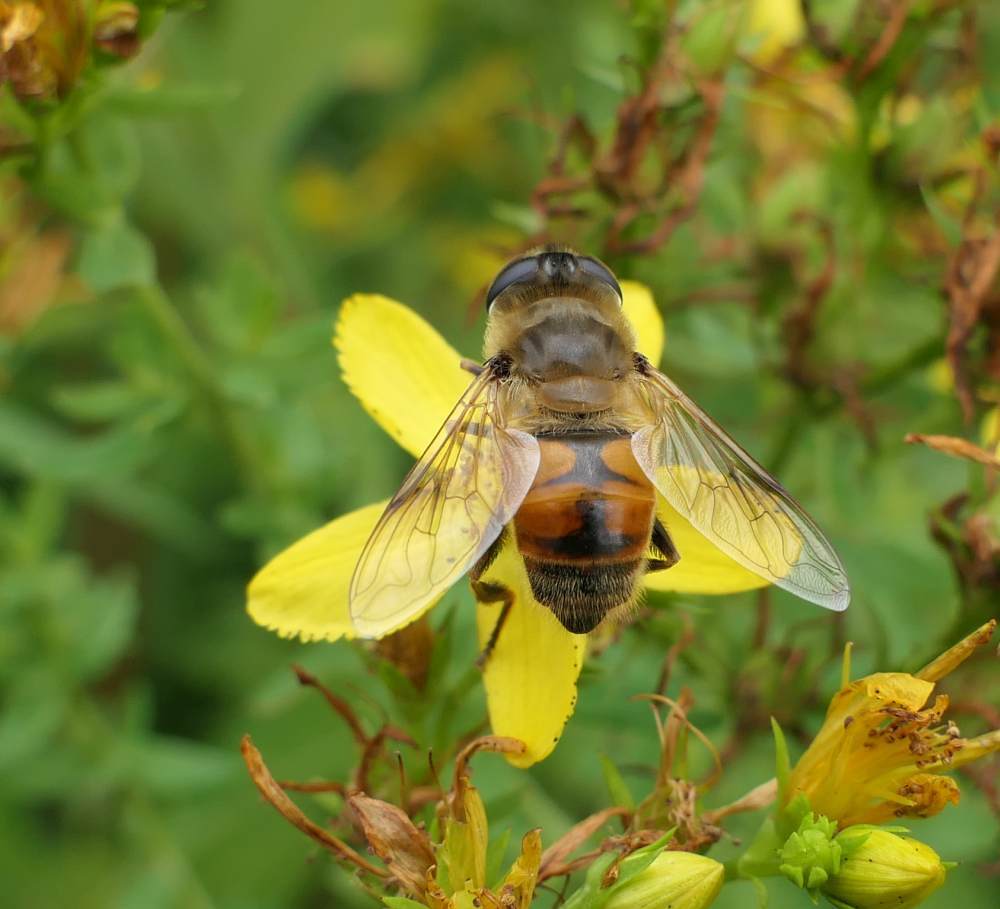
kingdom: Animalia
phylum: Arthropoda
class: Insecta
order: Diptera
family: Syrphidae
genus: Eristalis
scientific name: Eristalis tenax
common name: Drone fly
